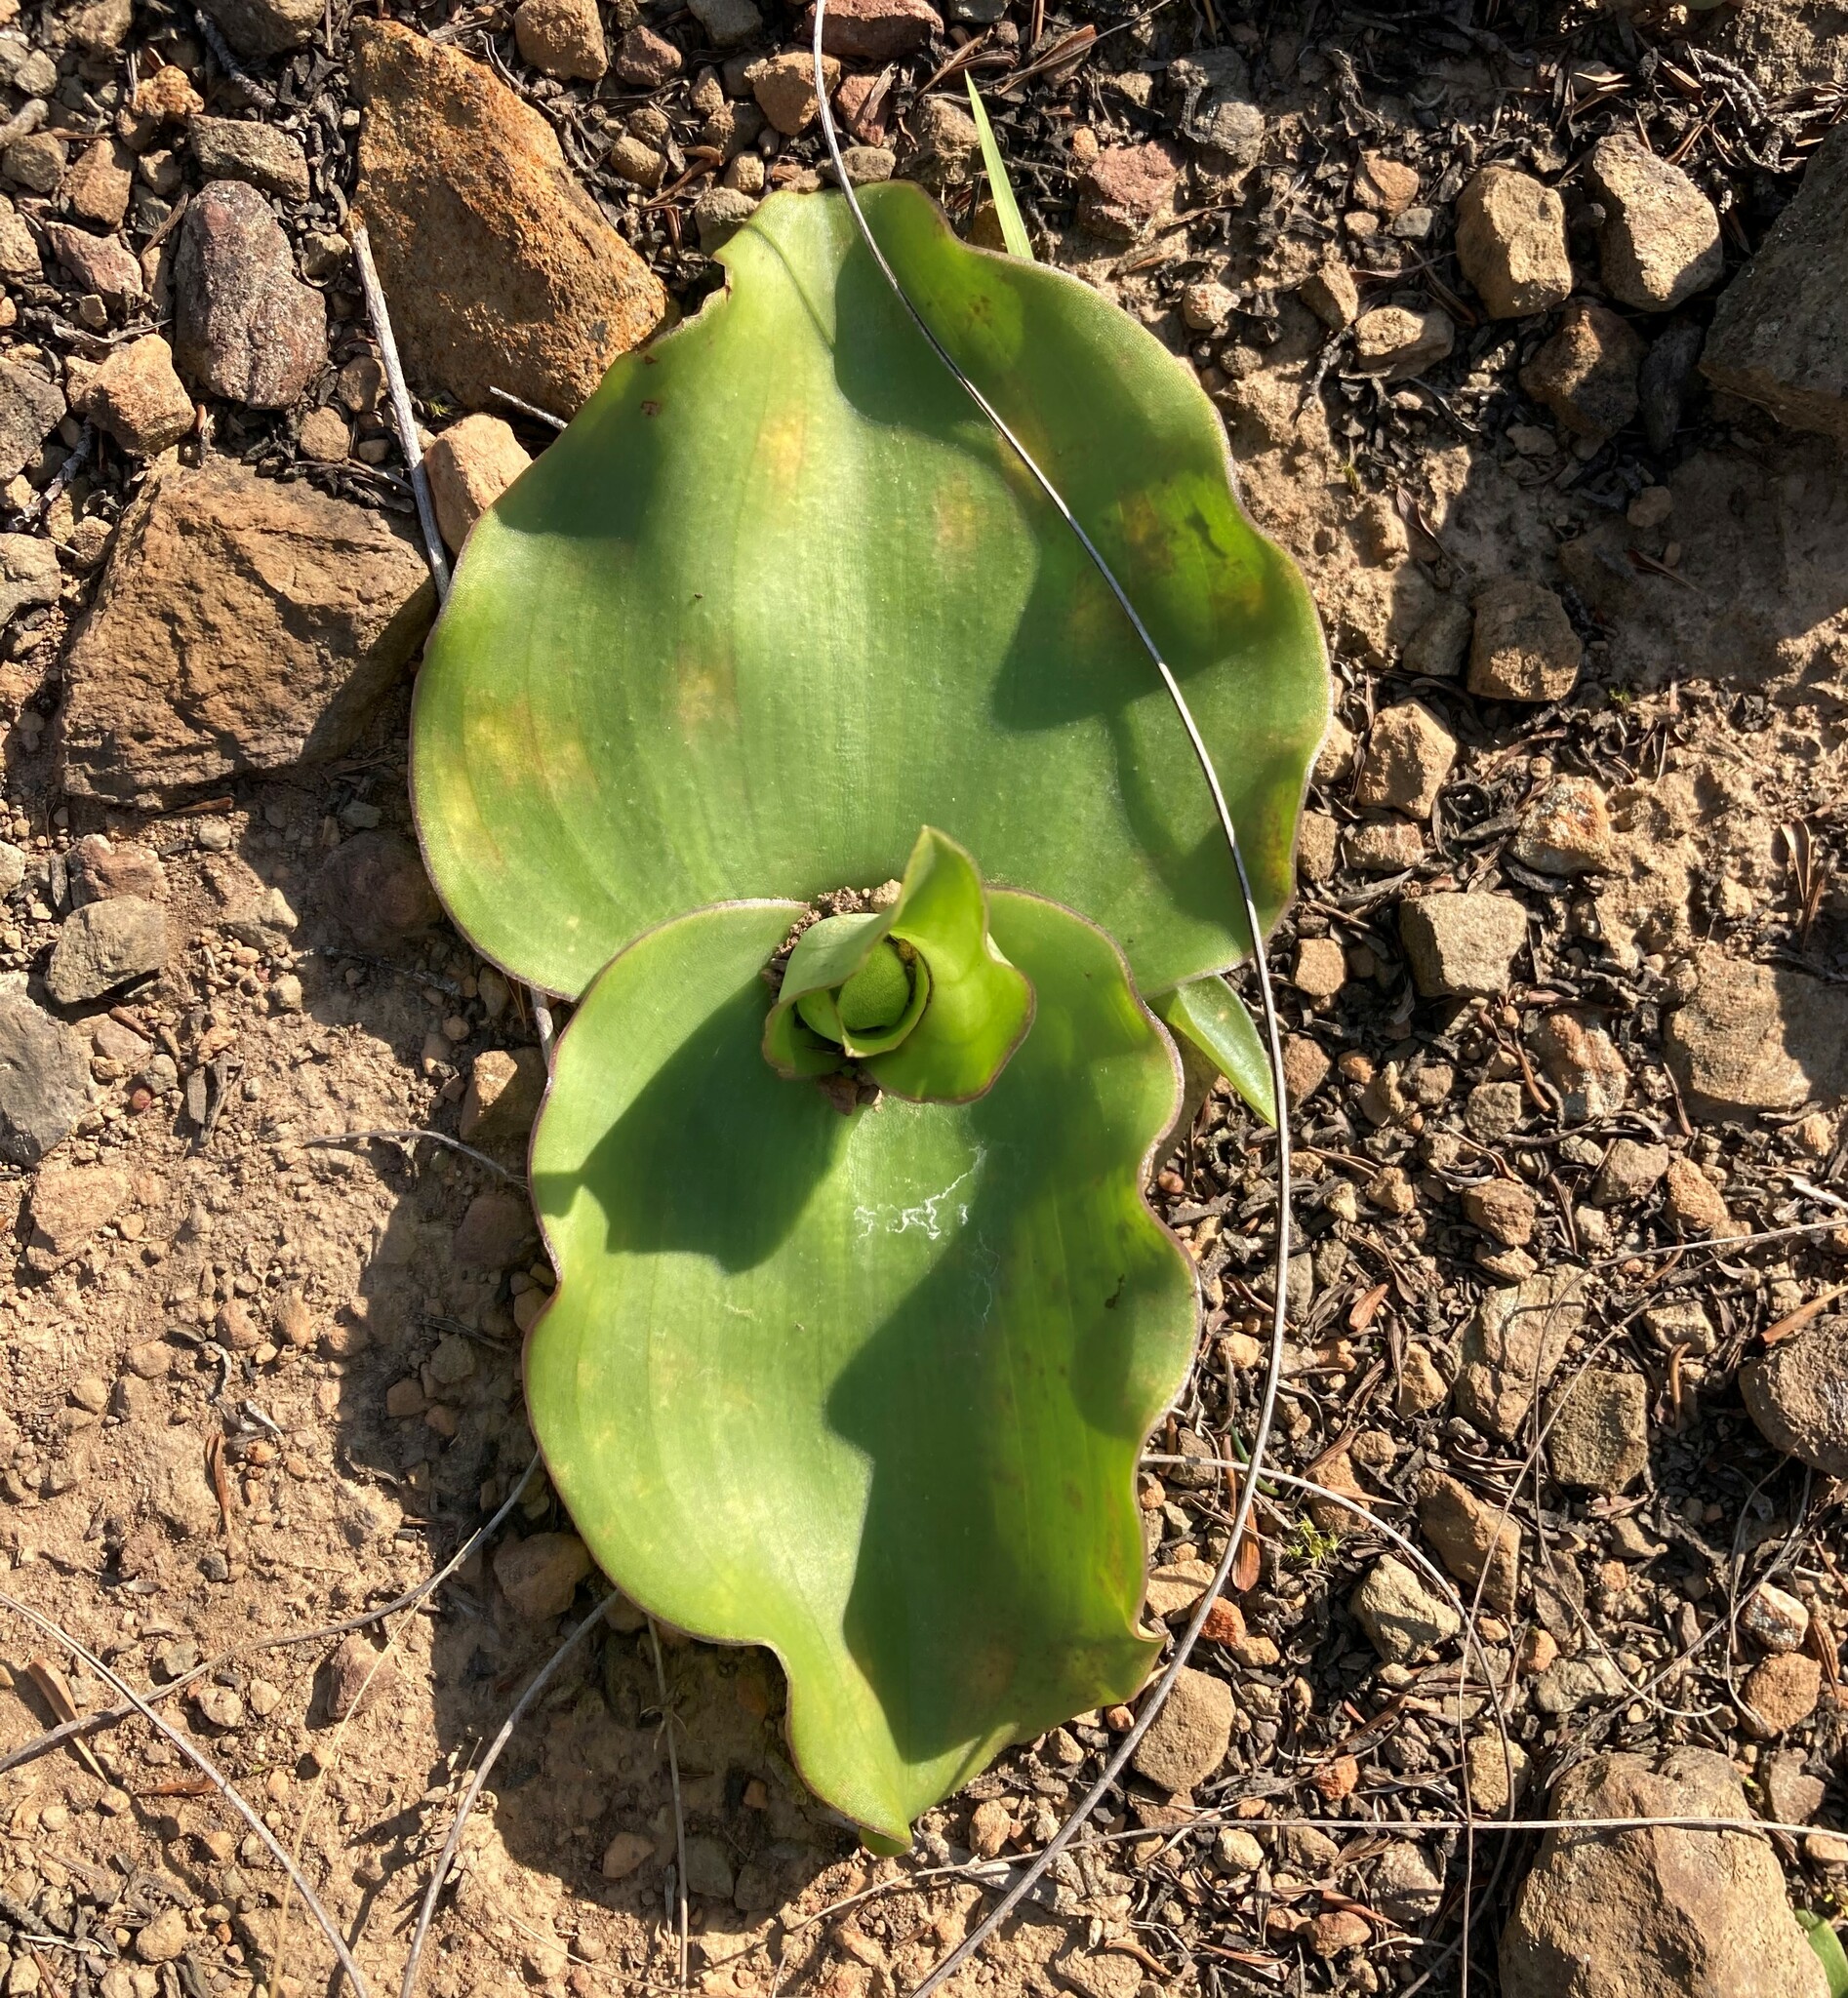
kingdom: Plantae
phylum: Tracheophyta
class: Liliopsida
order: Asparagales
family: Orchidaceae
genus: Satyrium
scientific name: Satyrium erectum
